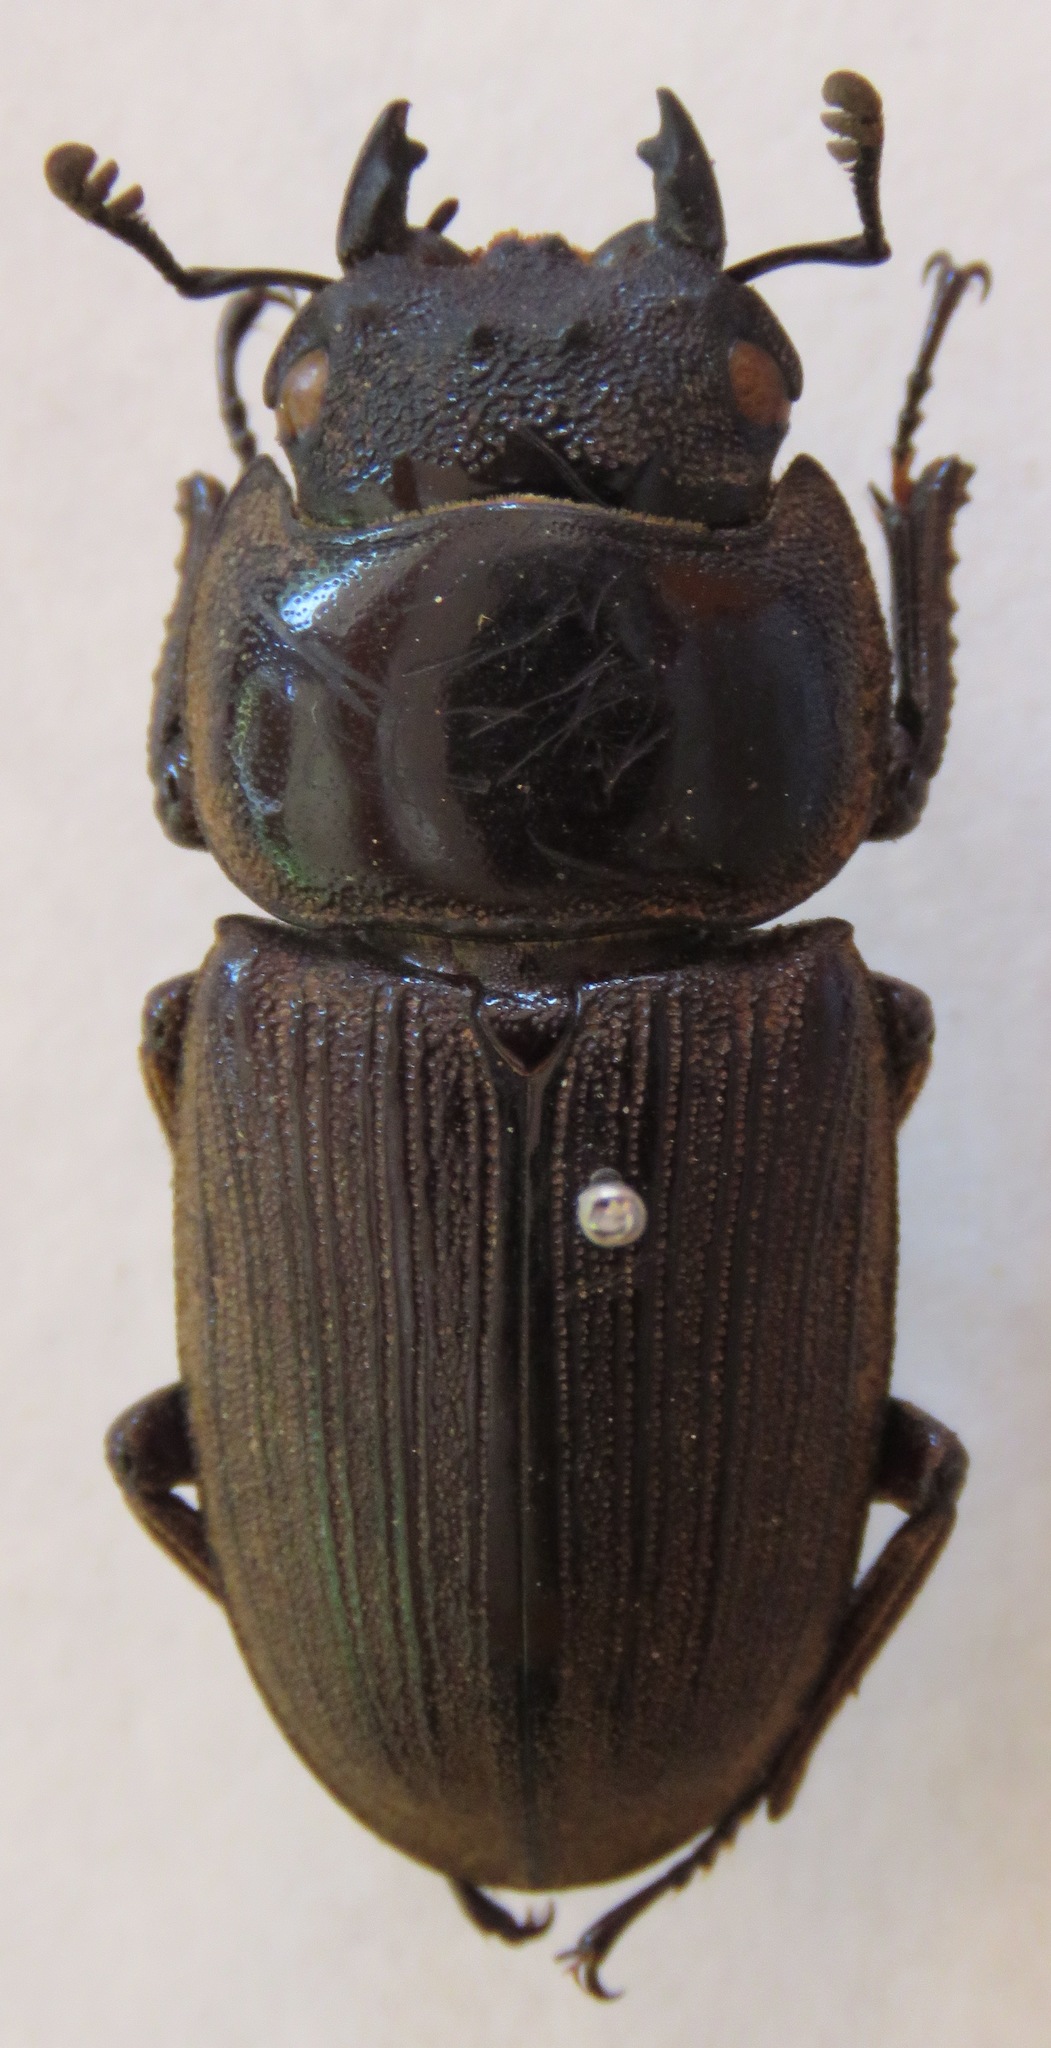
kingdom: Animalia
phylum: Arthropoda
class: Insecta
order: Coleoptera
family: Lucanidae
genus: Dorcus
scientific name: Dorcus ritsemae
